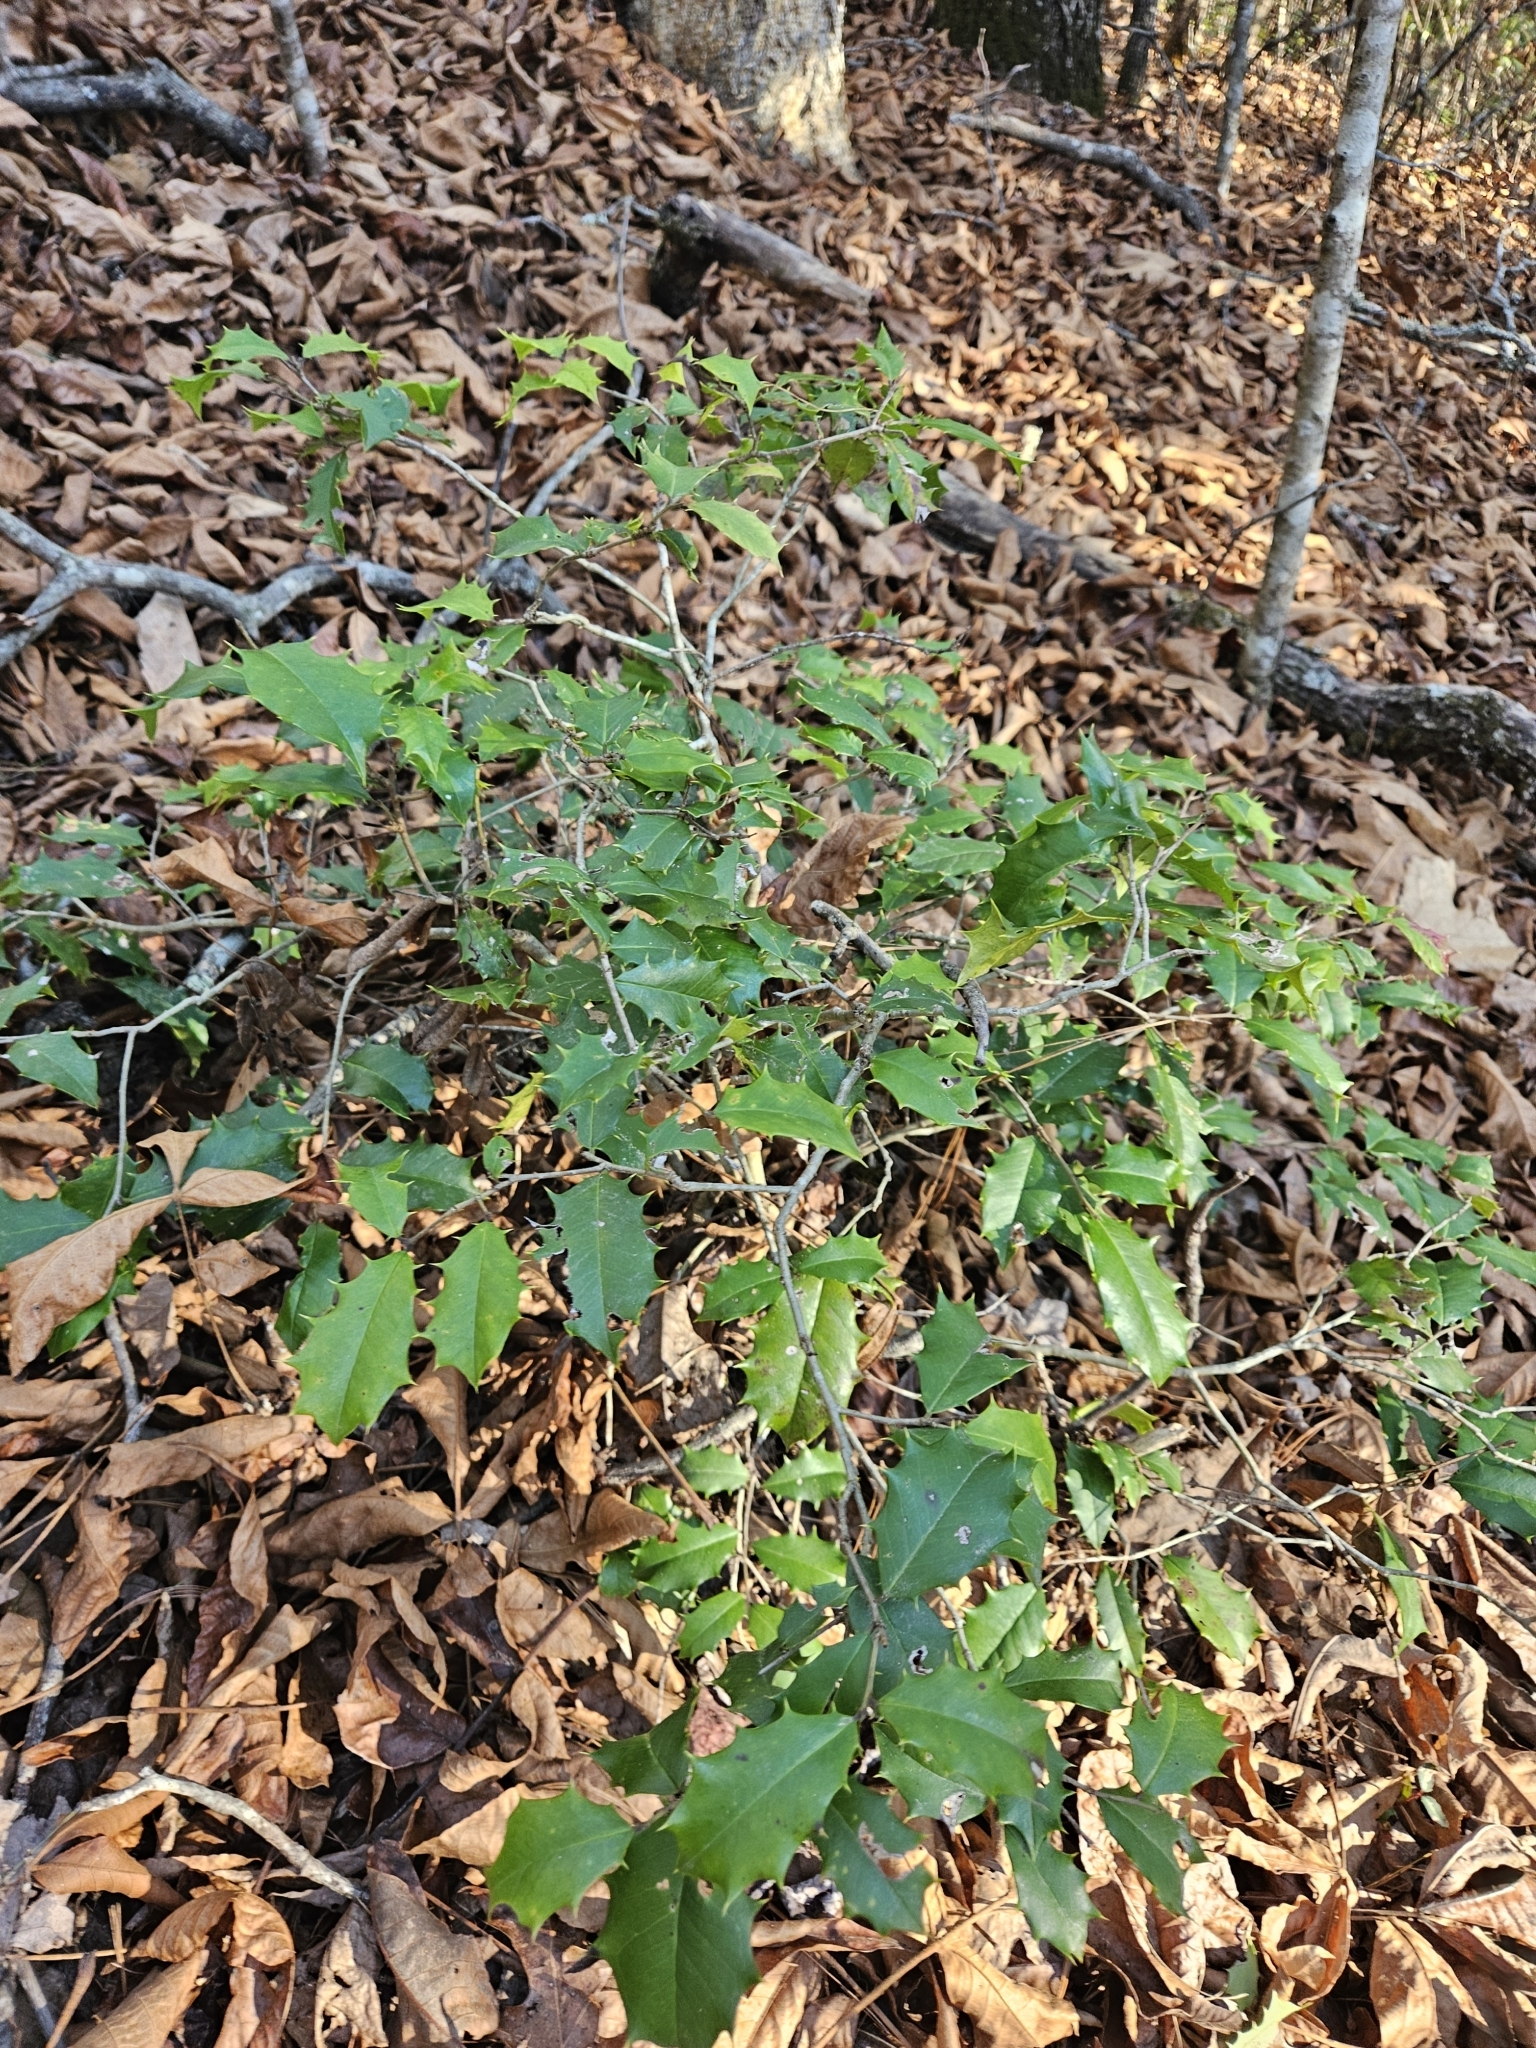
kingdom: Plantae
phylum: Tracheophyta
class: Magnoliopsida
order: Aquifoliales
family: Aquifoliaceae
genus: Ilex
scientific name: Ilex opaca
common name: American holly
